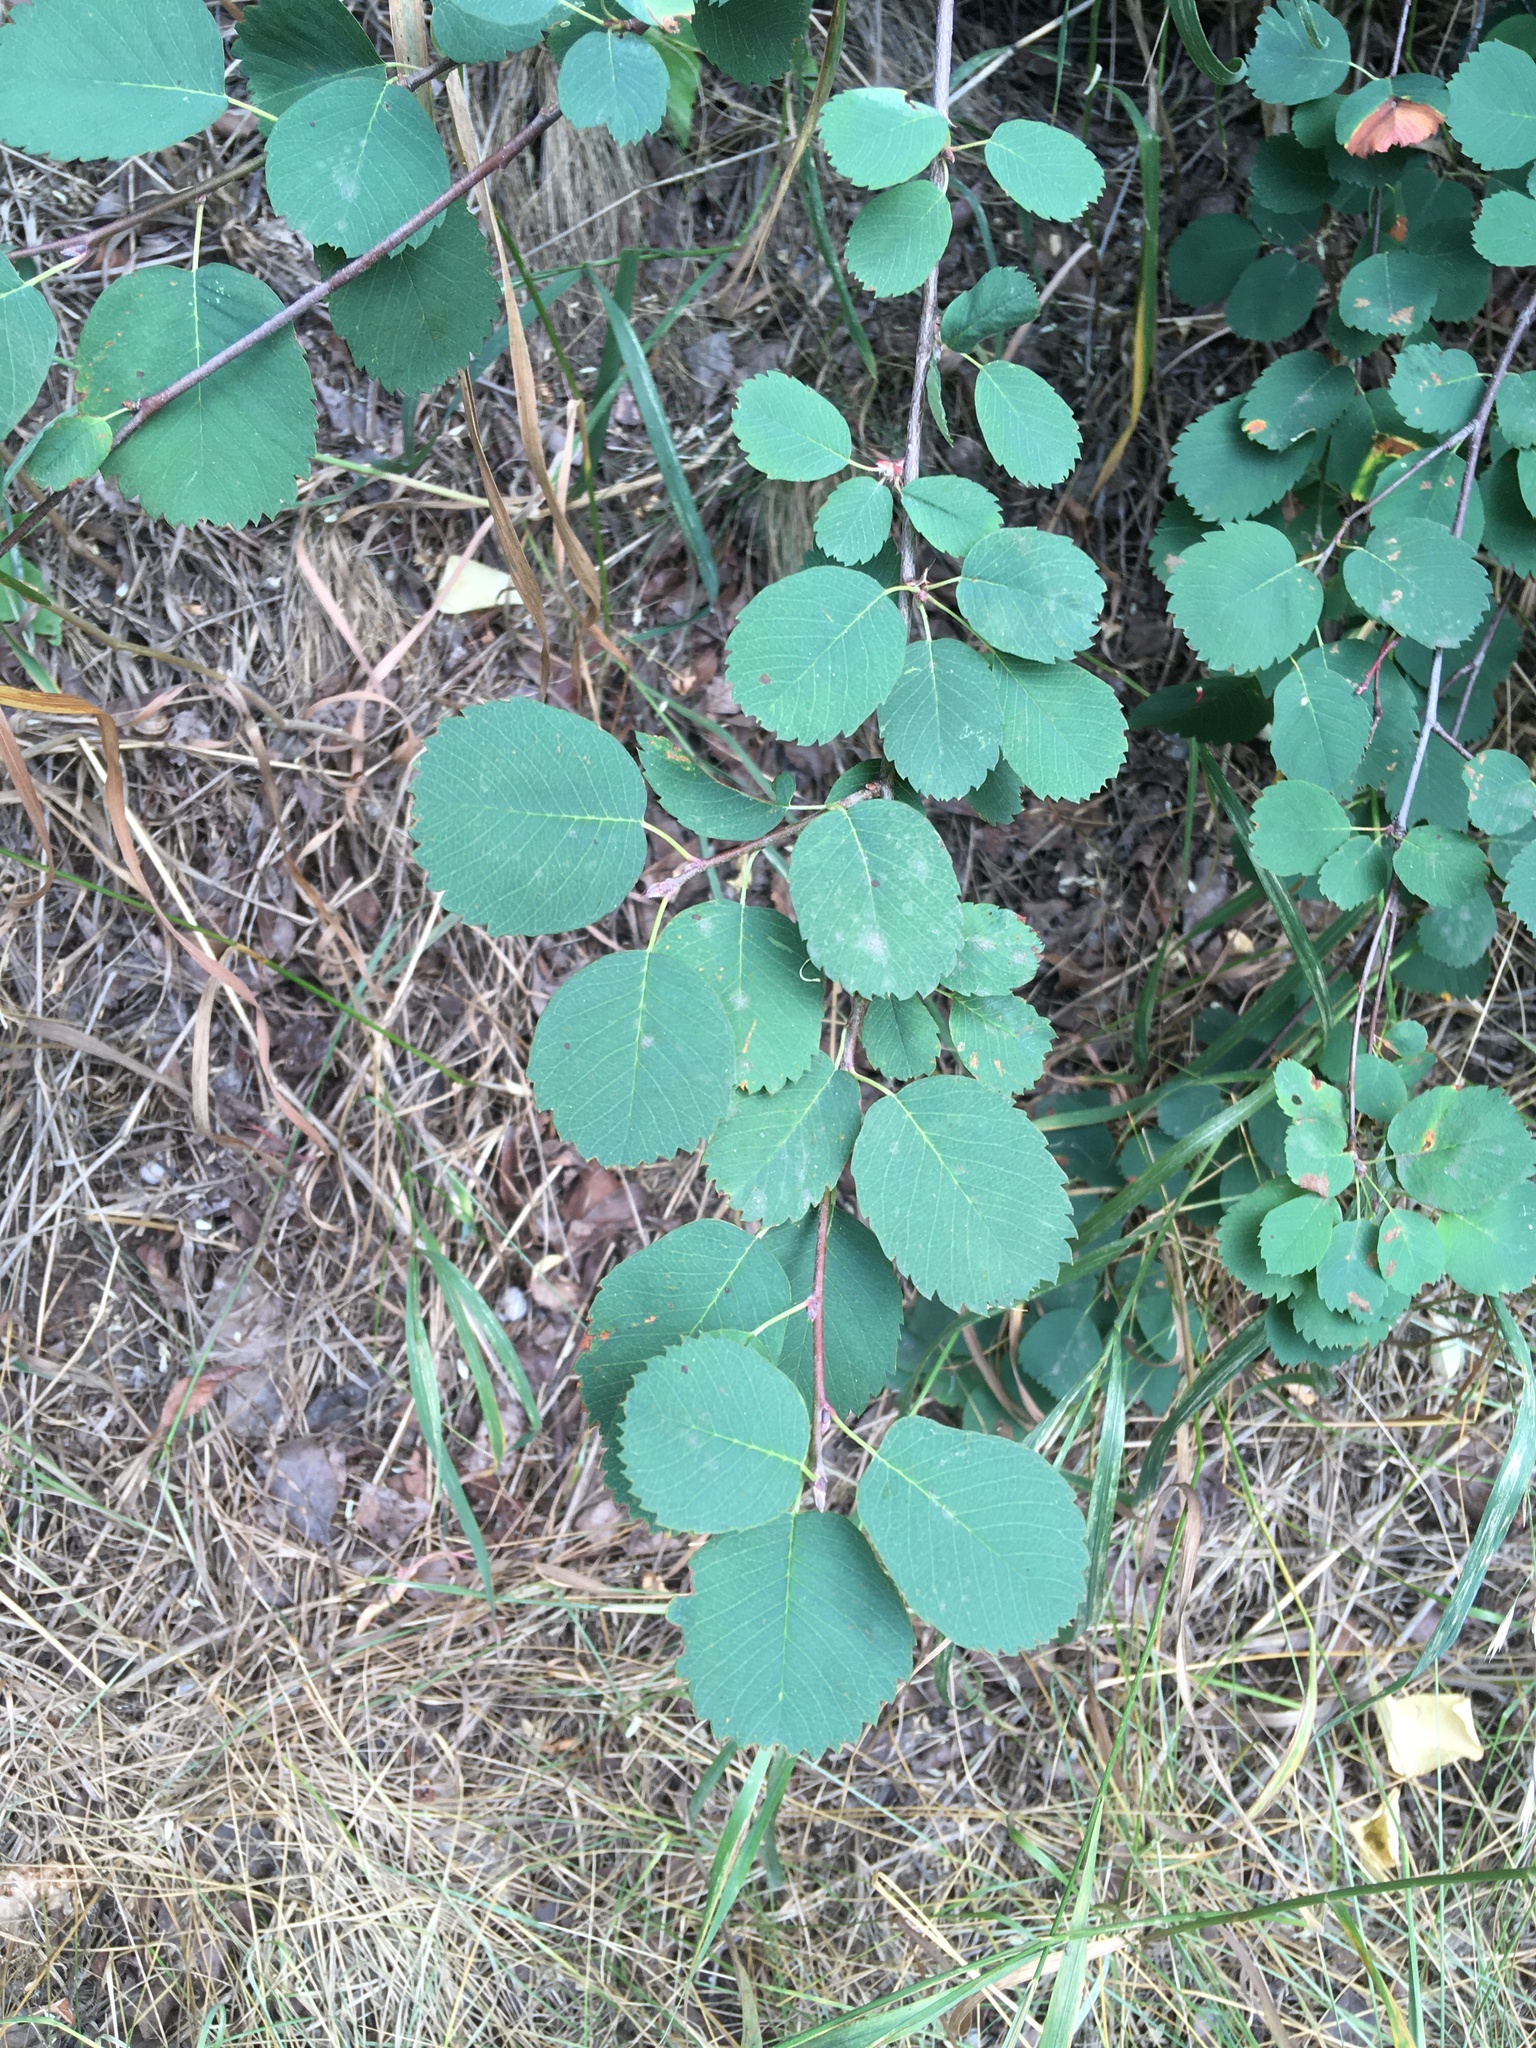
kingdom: Plantae
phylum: Tracheophyta
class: Magnoliopsida
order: Rosales
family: Rosaceae
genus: Amelanchier
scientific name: Amelanchier alnifolia
